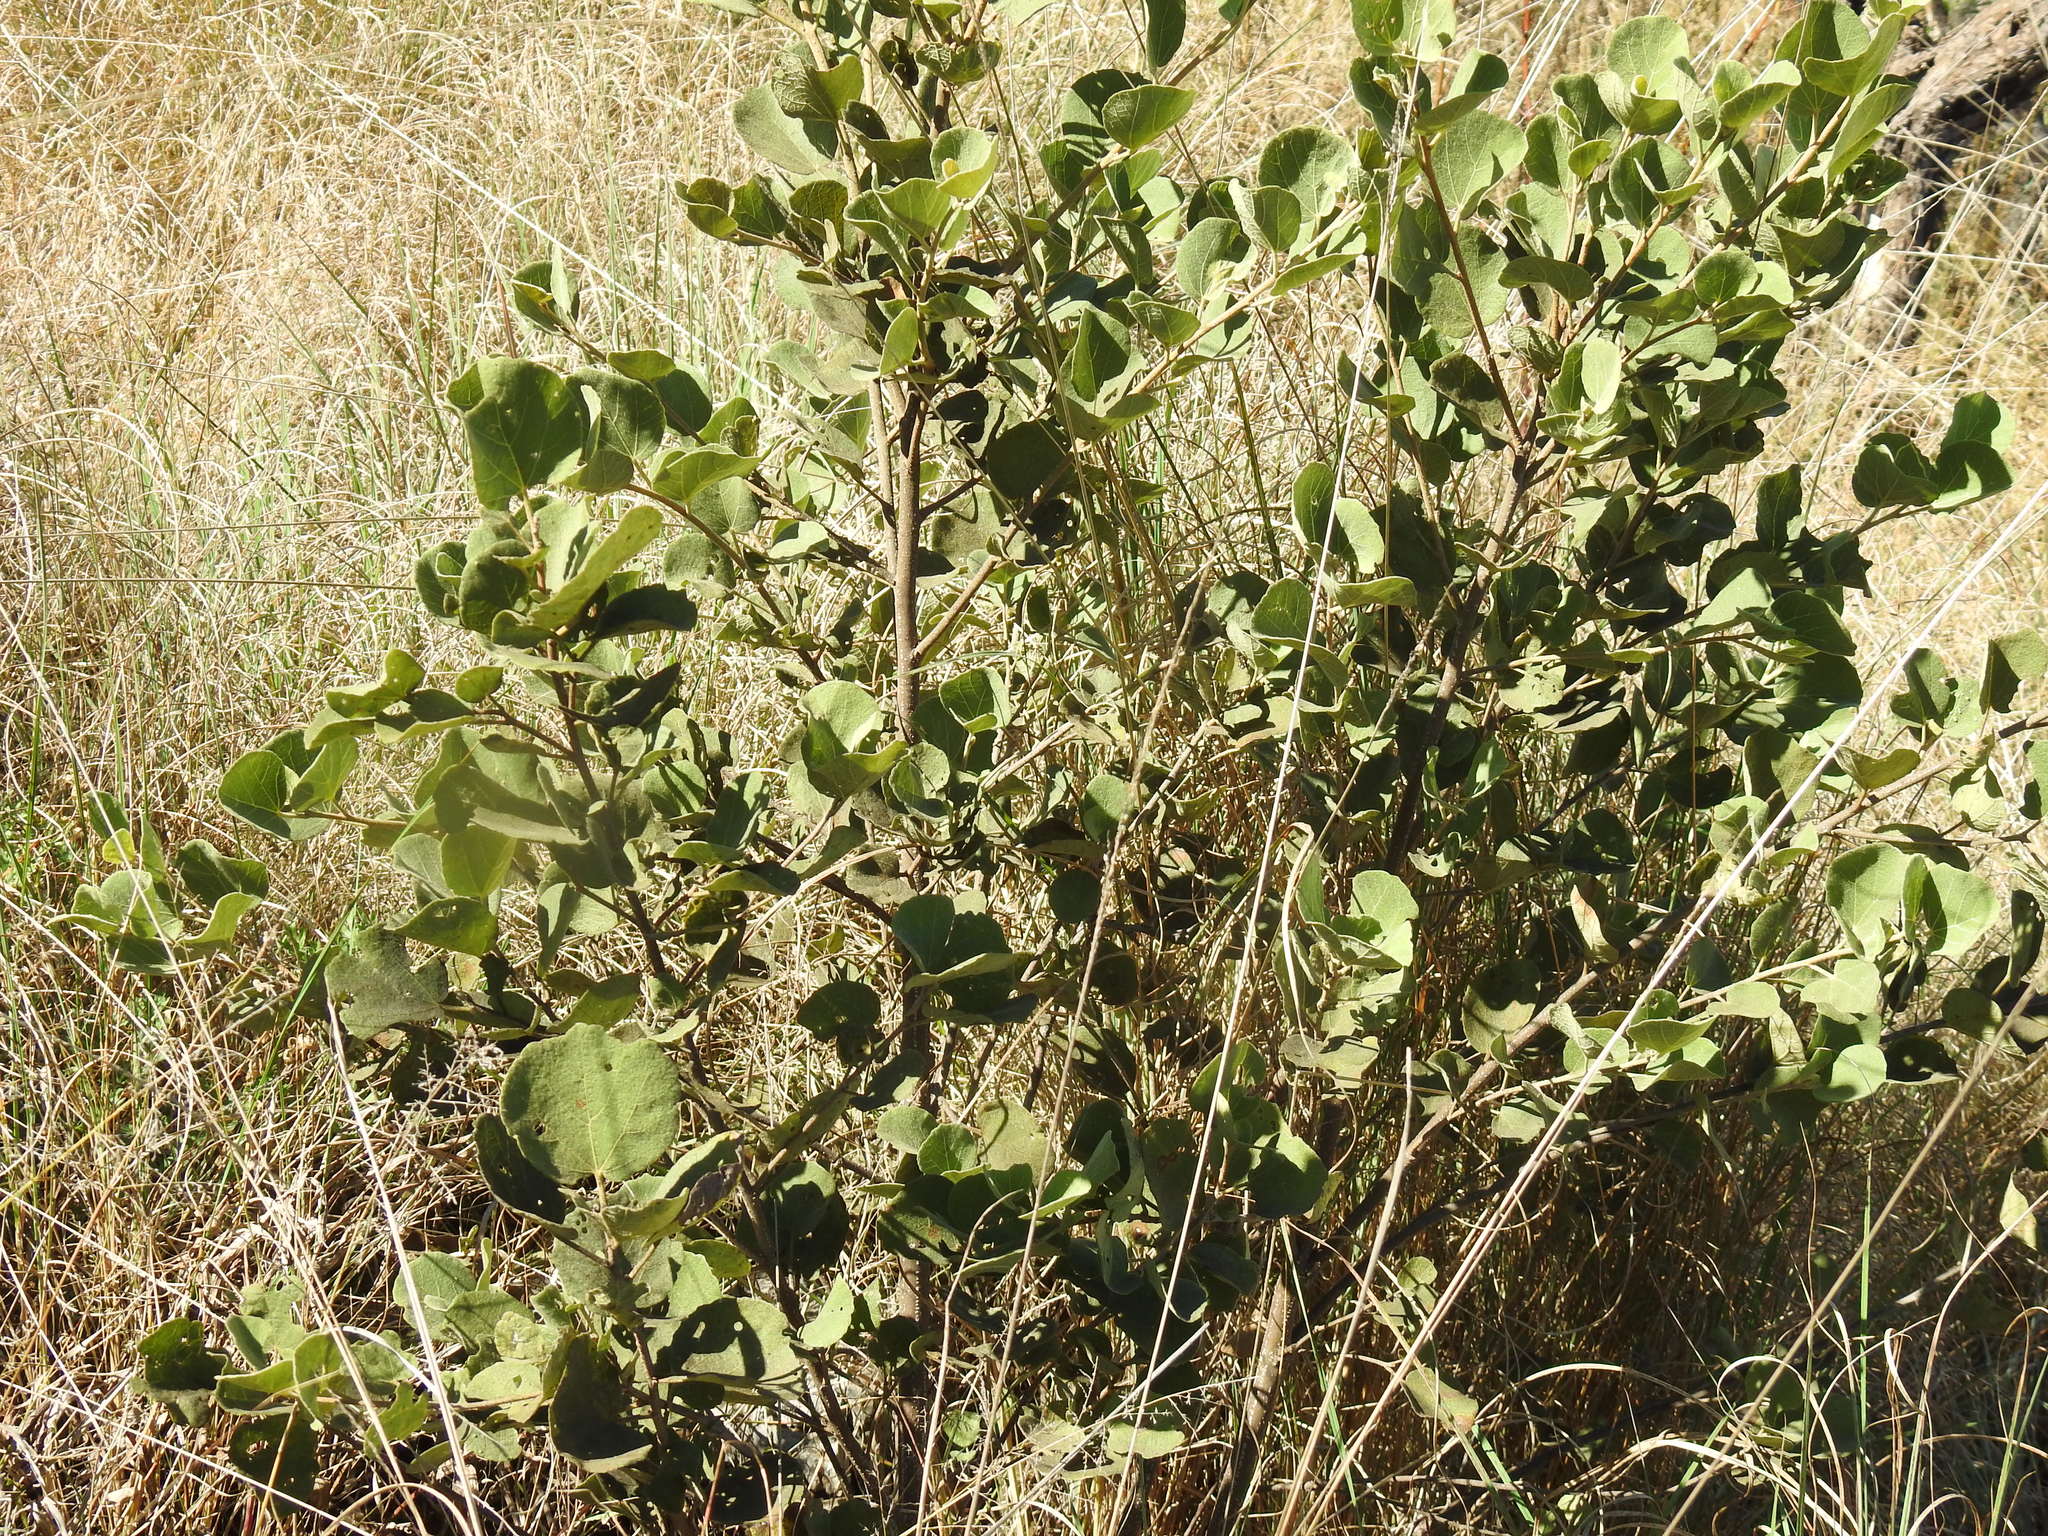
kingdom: Plantae
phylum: Tracheophyta
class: Magnoliopsida
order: Malvales
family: Malvaceae
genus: Dombeya
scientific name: Dombeya rotundifolia
